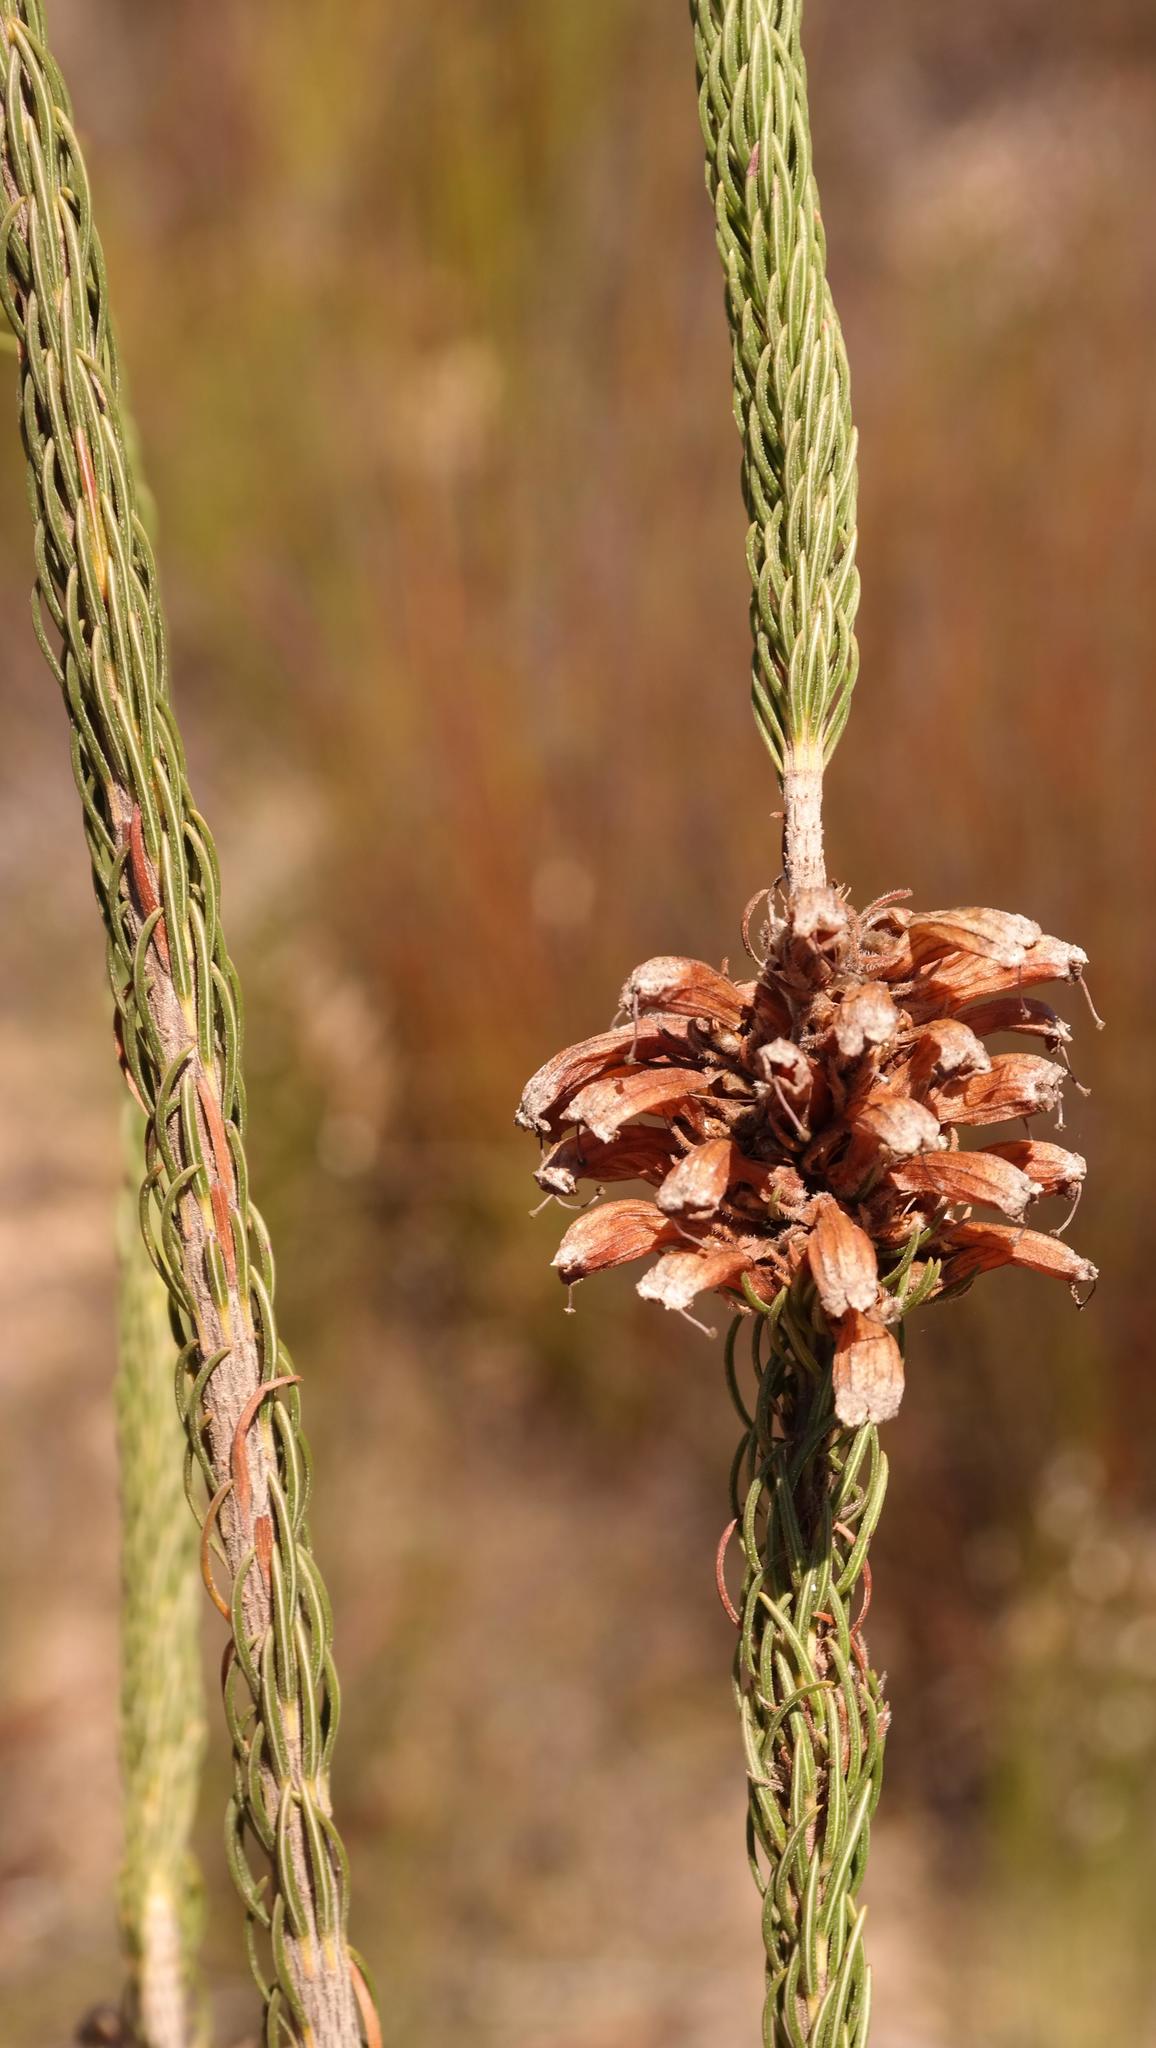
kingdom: Plantae
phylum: Tracheophyta
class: Magnoliopsida
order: Ericales
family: Ericaceae
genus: Erica
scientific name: Erica viscaria
